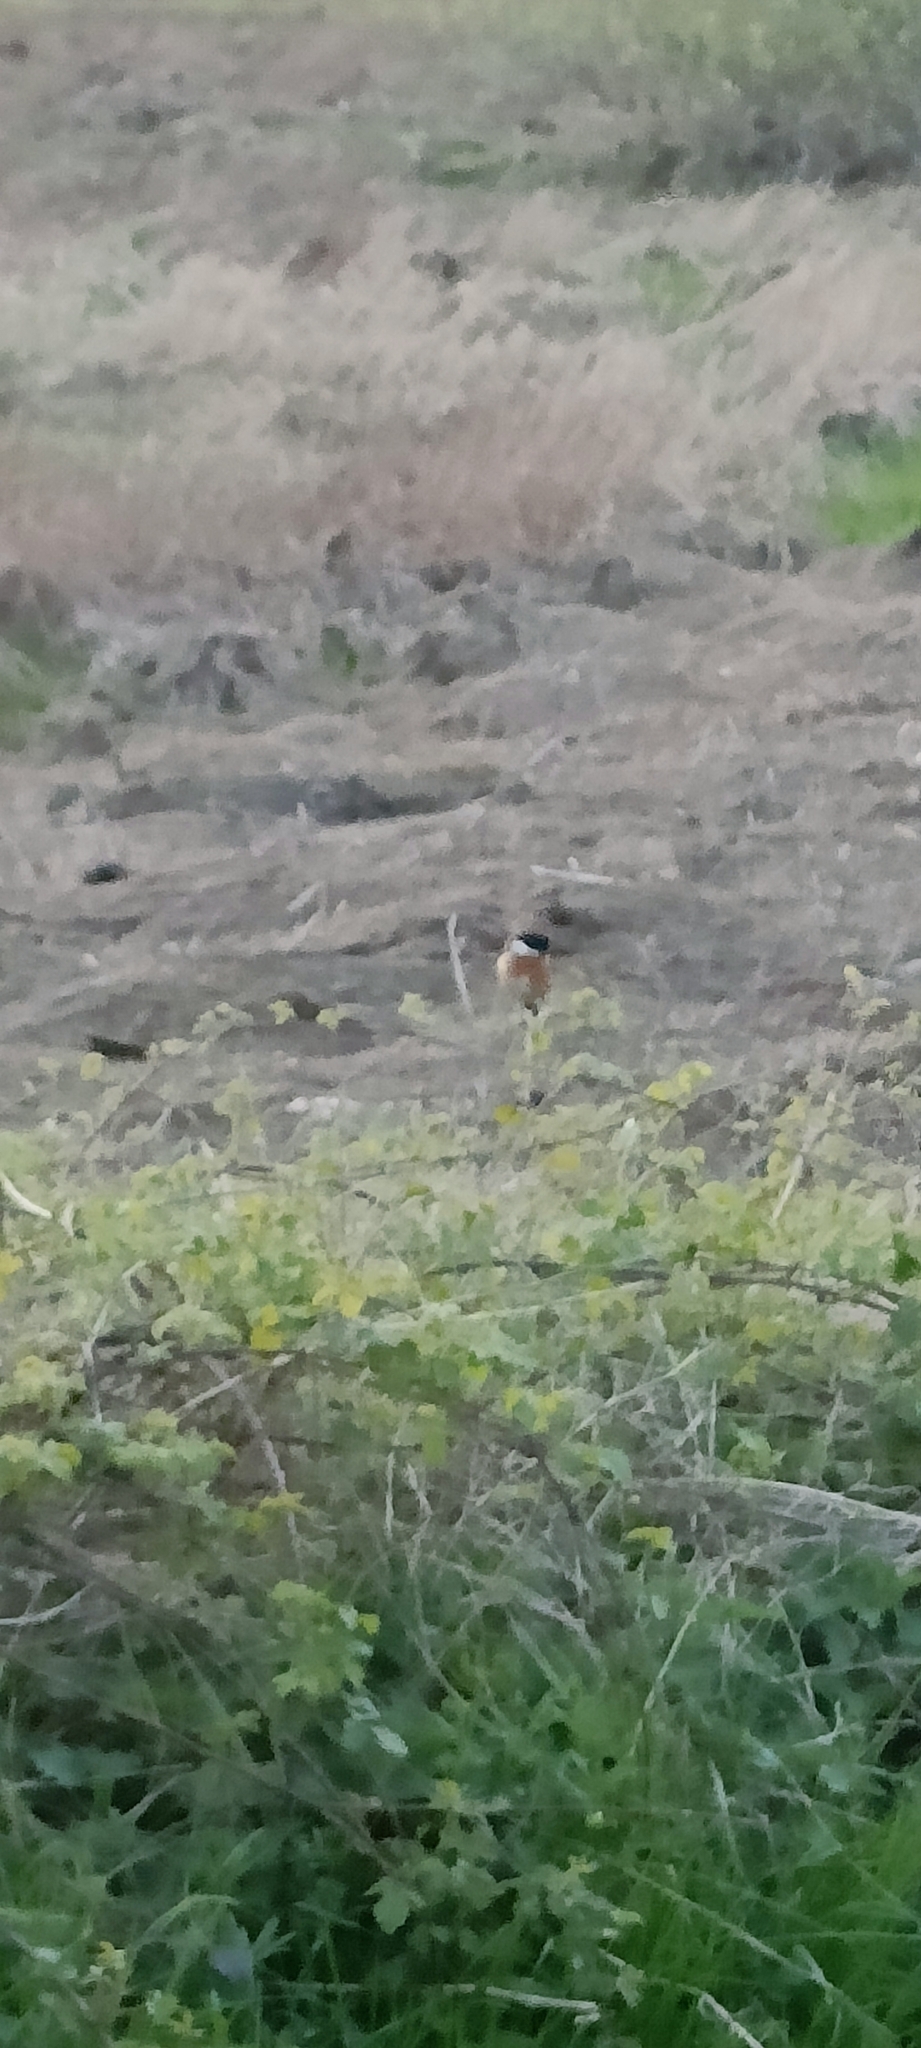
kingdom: Animalia
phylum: Chordata
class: Aves
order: Passeriformes
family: Muscicapidae
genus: Saxicola
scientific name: Saxicola rubicola
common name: European stonechat
